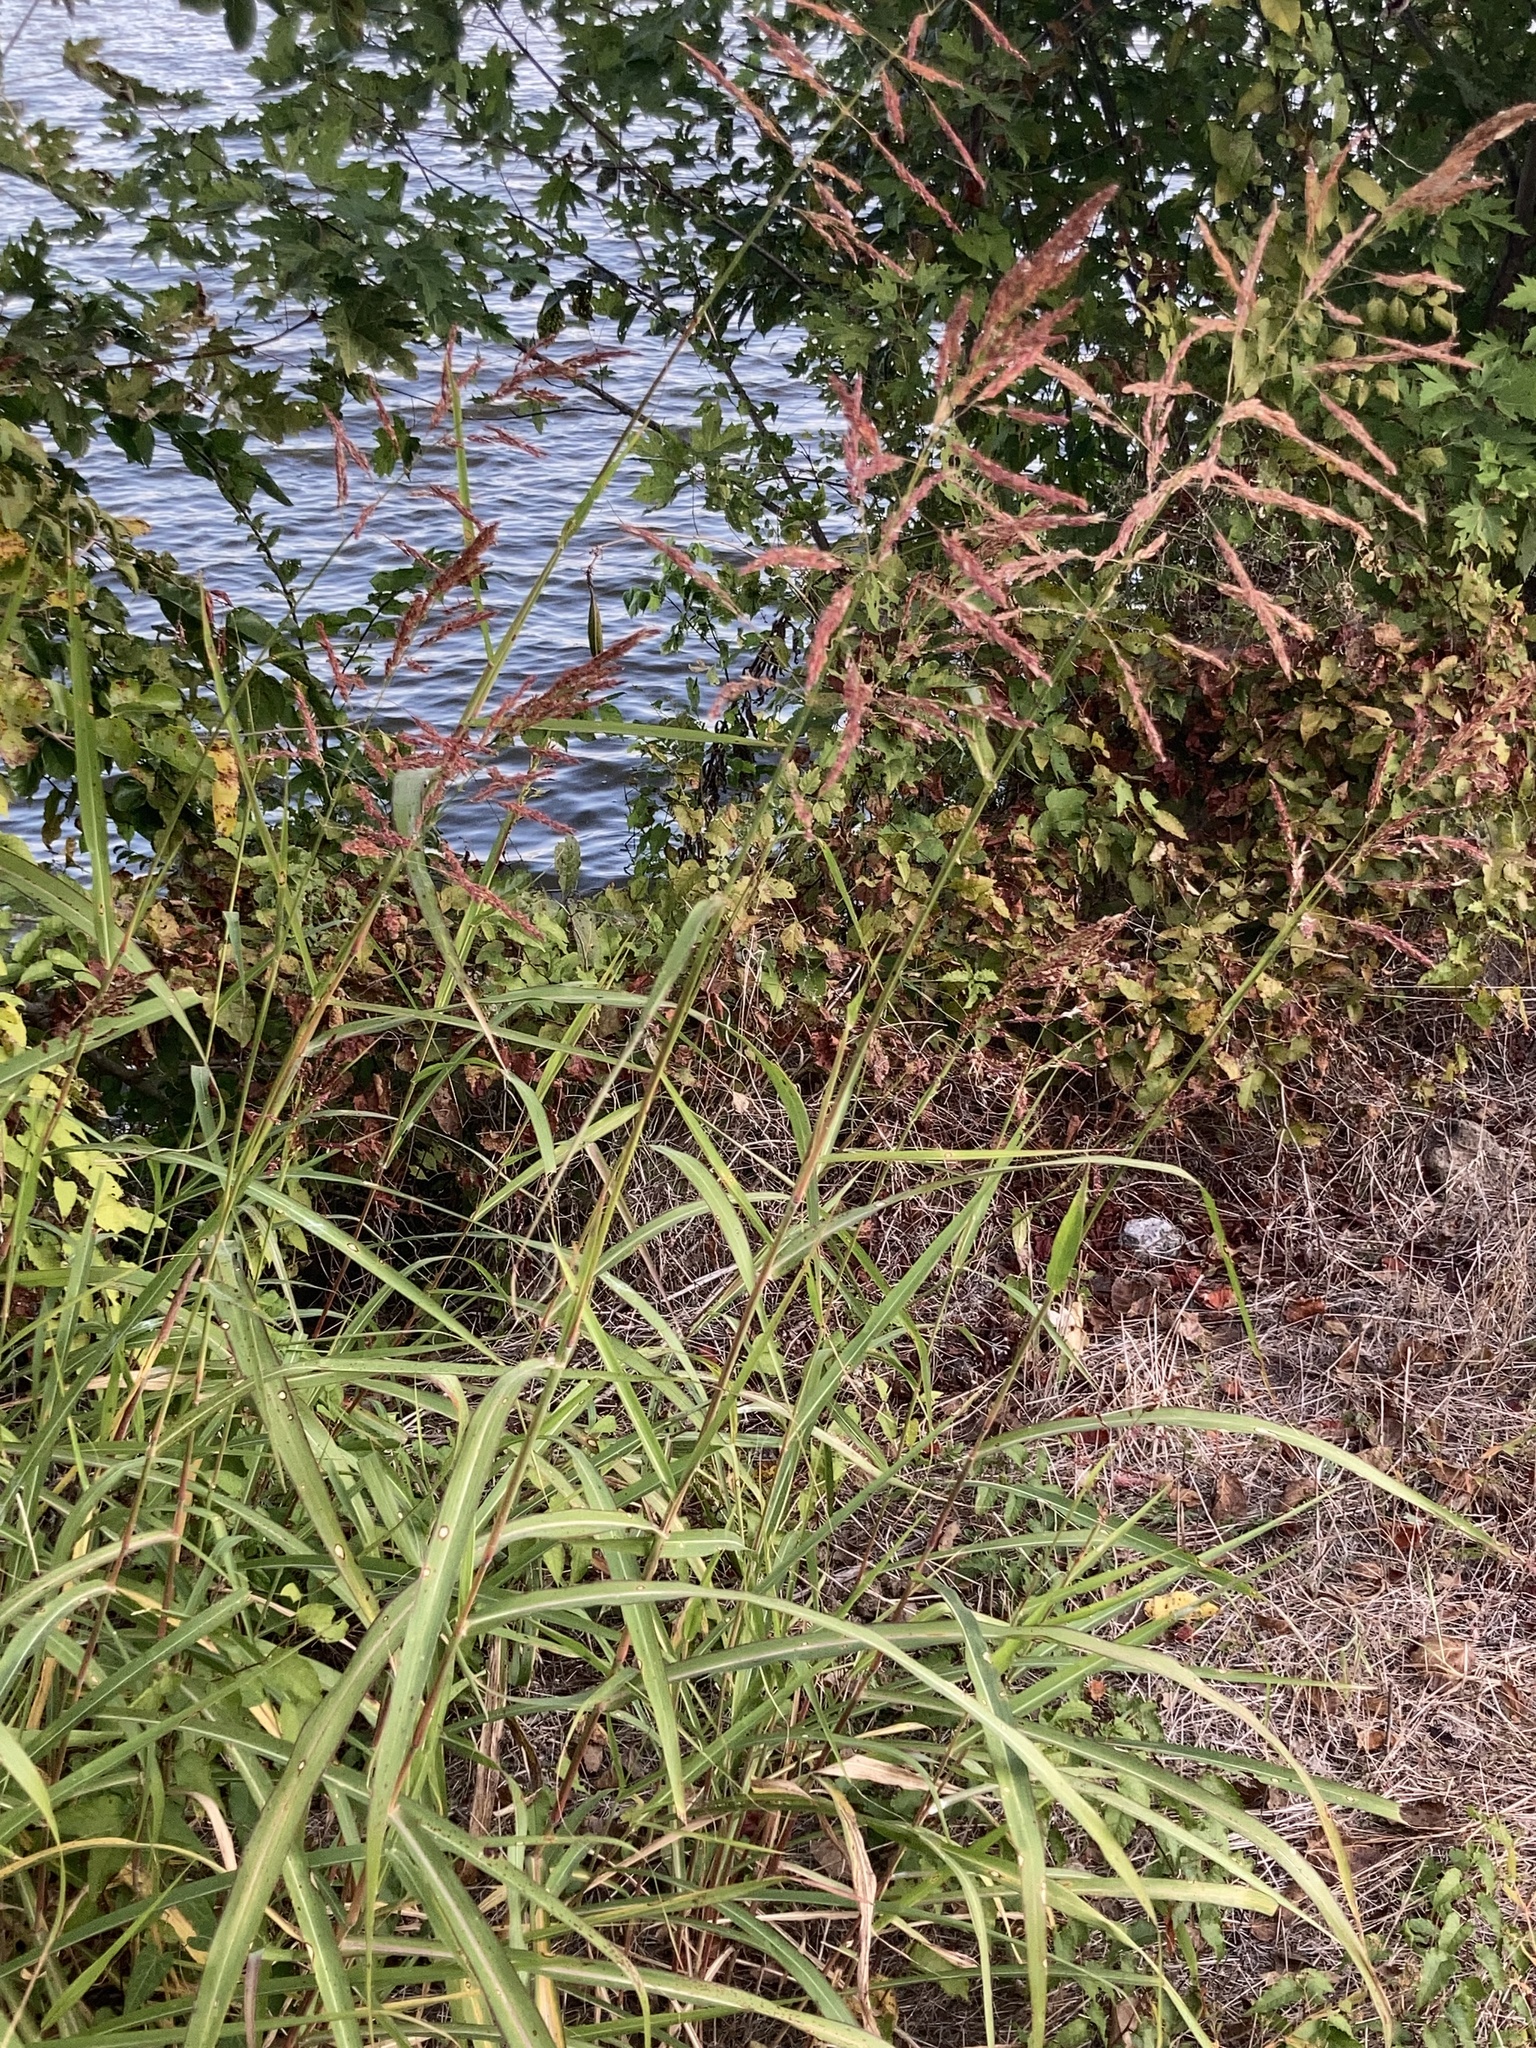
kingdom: Plantae
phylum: Tracheophyta
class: Liliopsida
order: Poales
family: Poaceae
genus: Sorghum
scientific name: Sorghum halepense
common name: Johnson-grass
